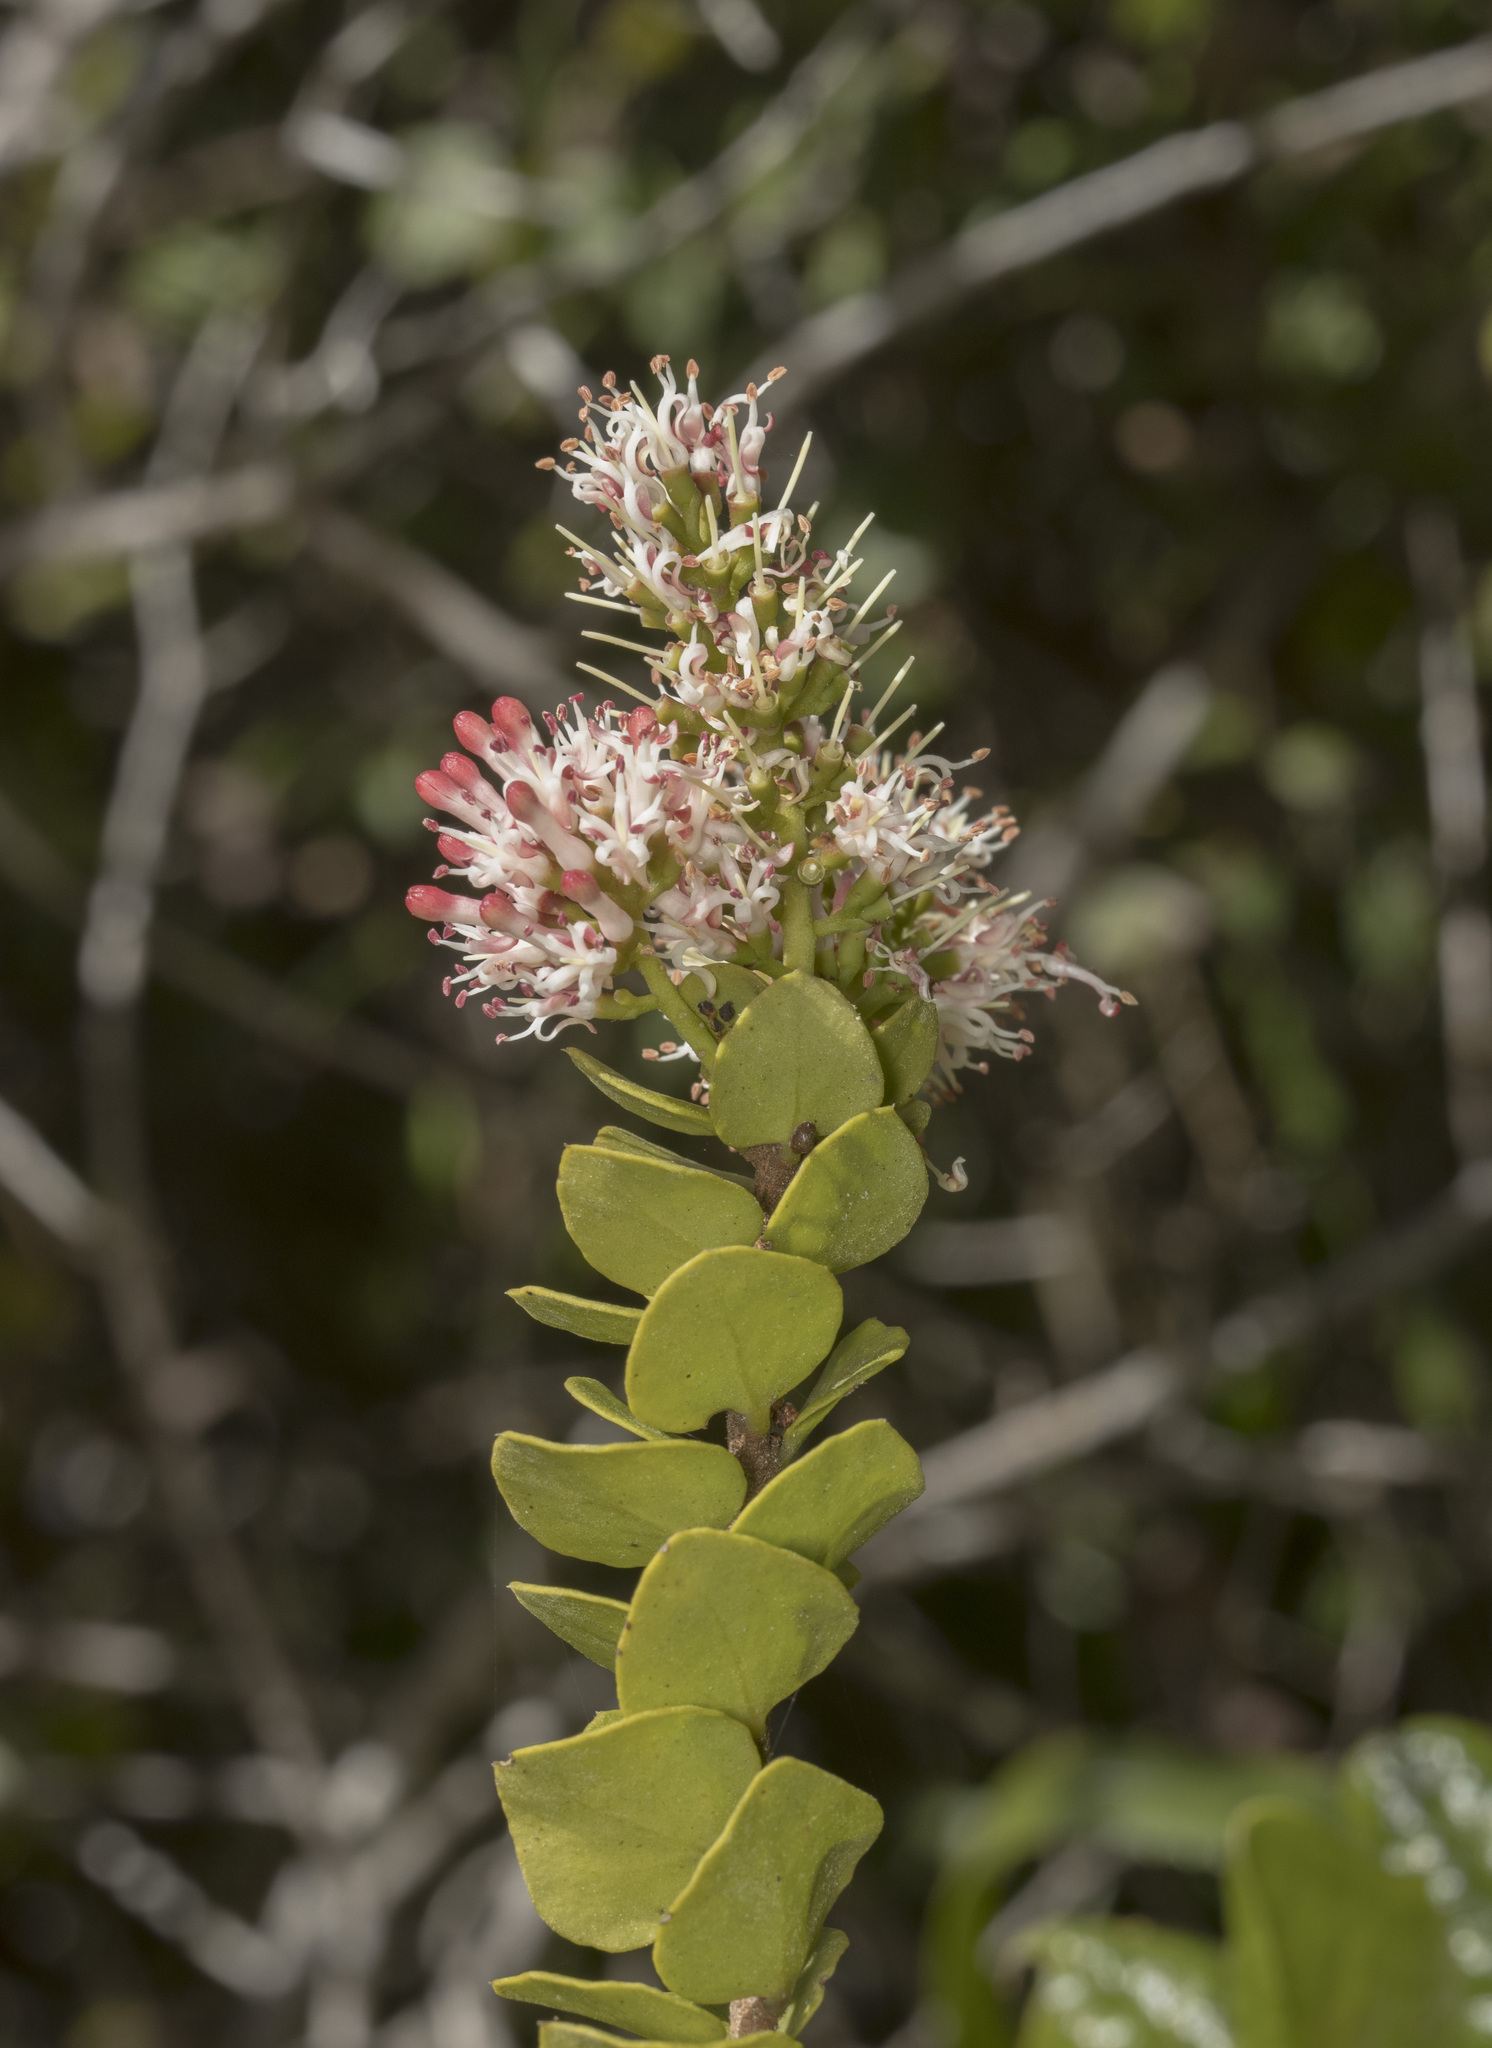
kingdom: Plantae
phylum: Tracheophyta
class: Magnoliopsida
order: Santalales
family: Loranthaceae
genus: Notanthera
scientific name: Notanthera heterophylla
